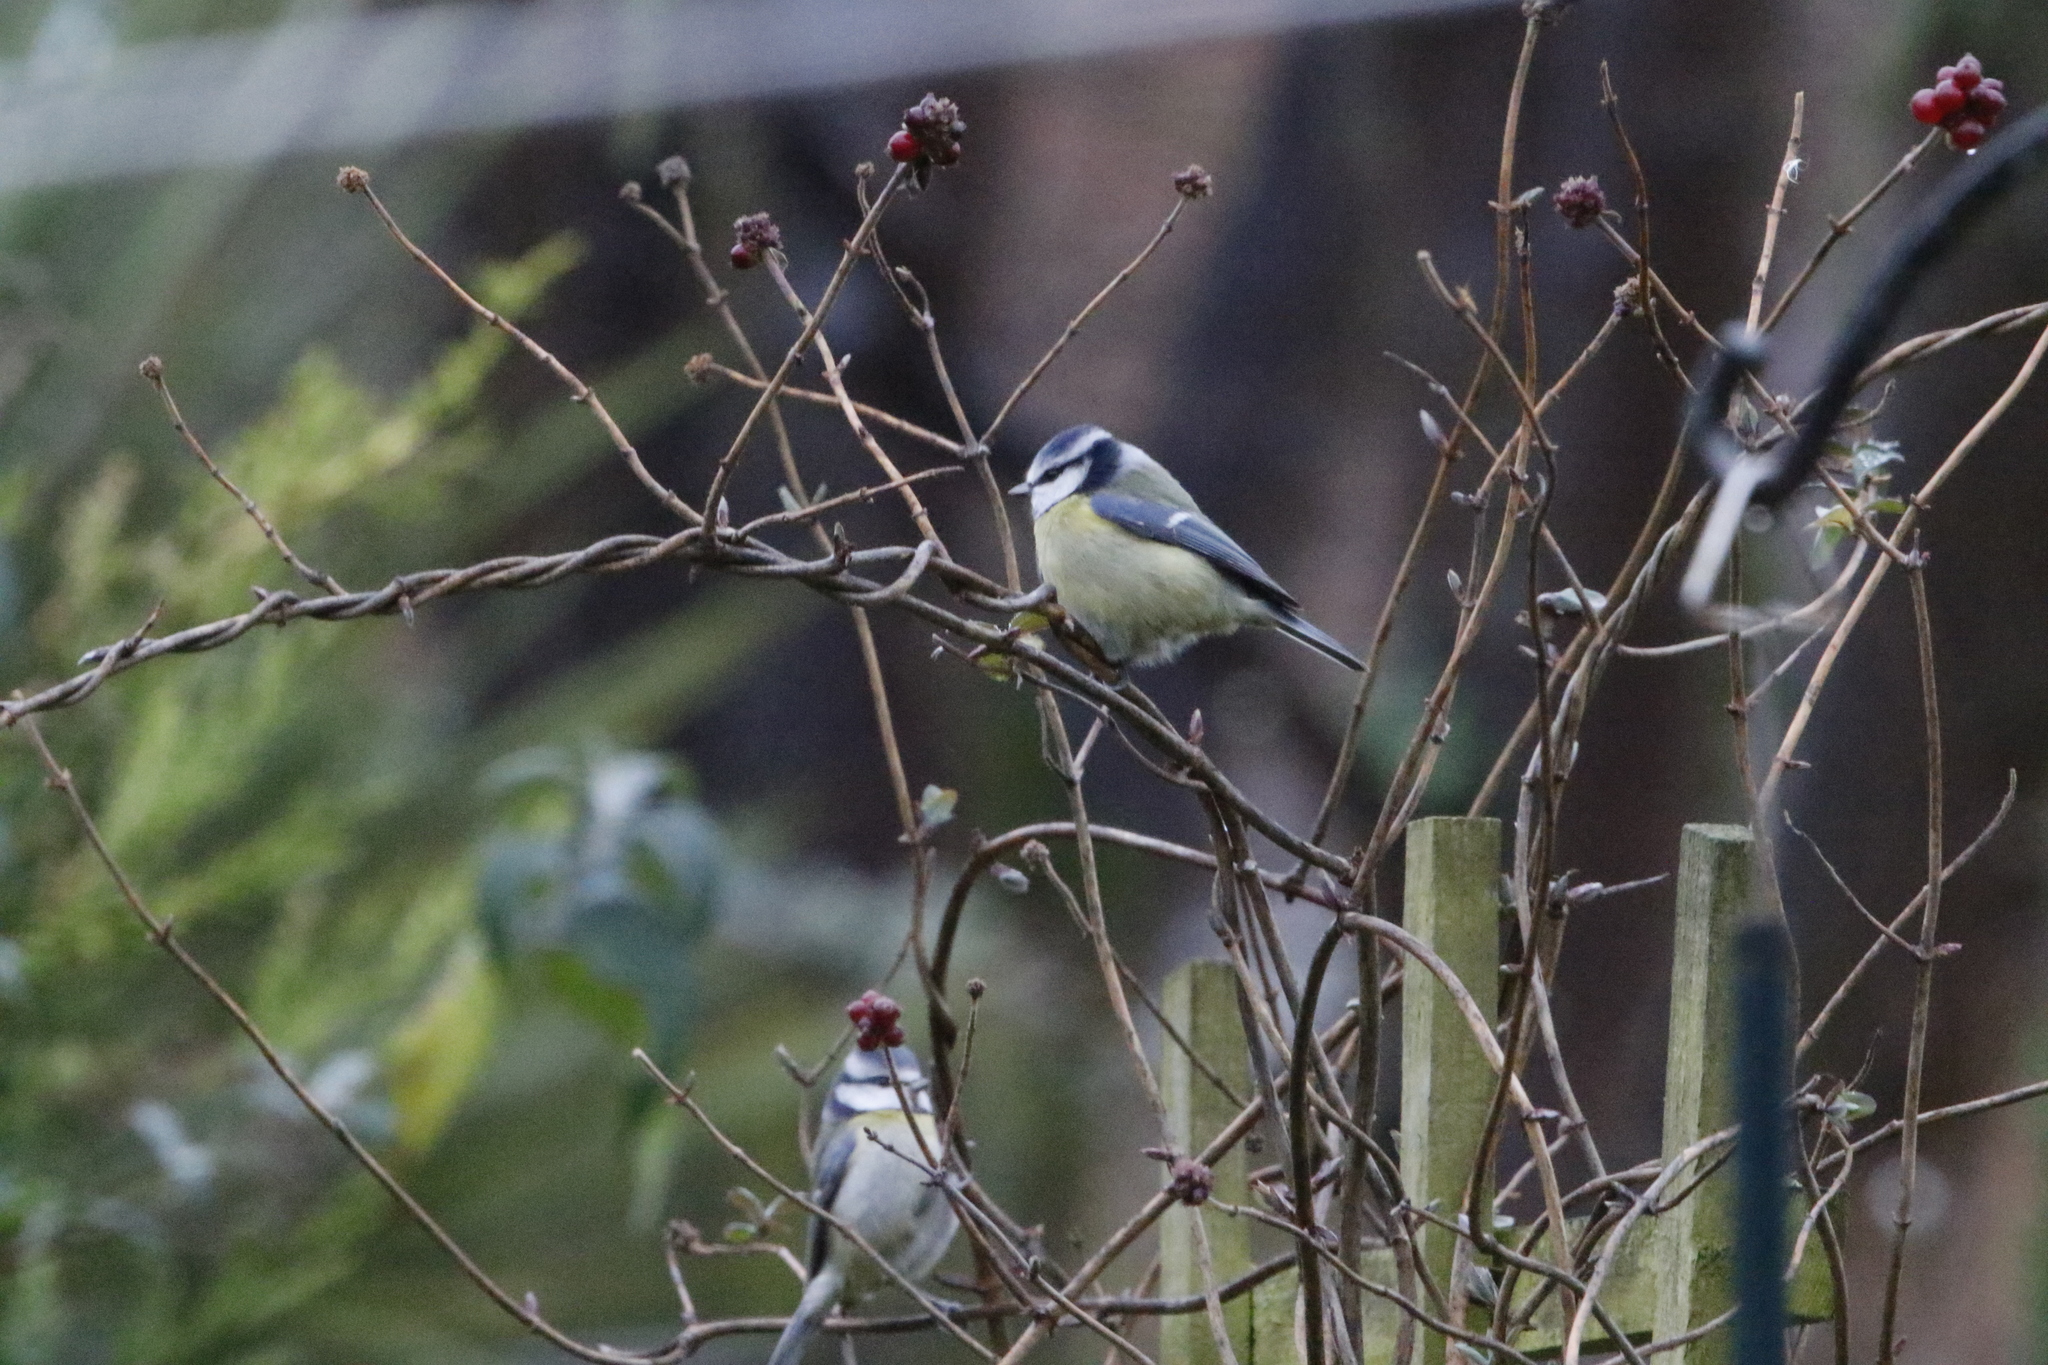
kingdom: Animalia
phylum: Chordata
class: Aves
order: Passeriformes
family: Paridae
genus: Cyanistes
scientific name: Cyanistes caeruleus
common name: Eurasian blue tit
